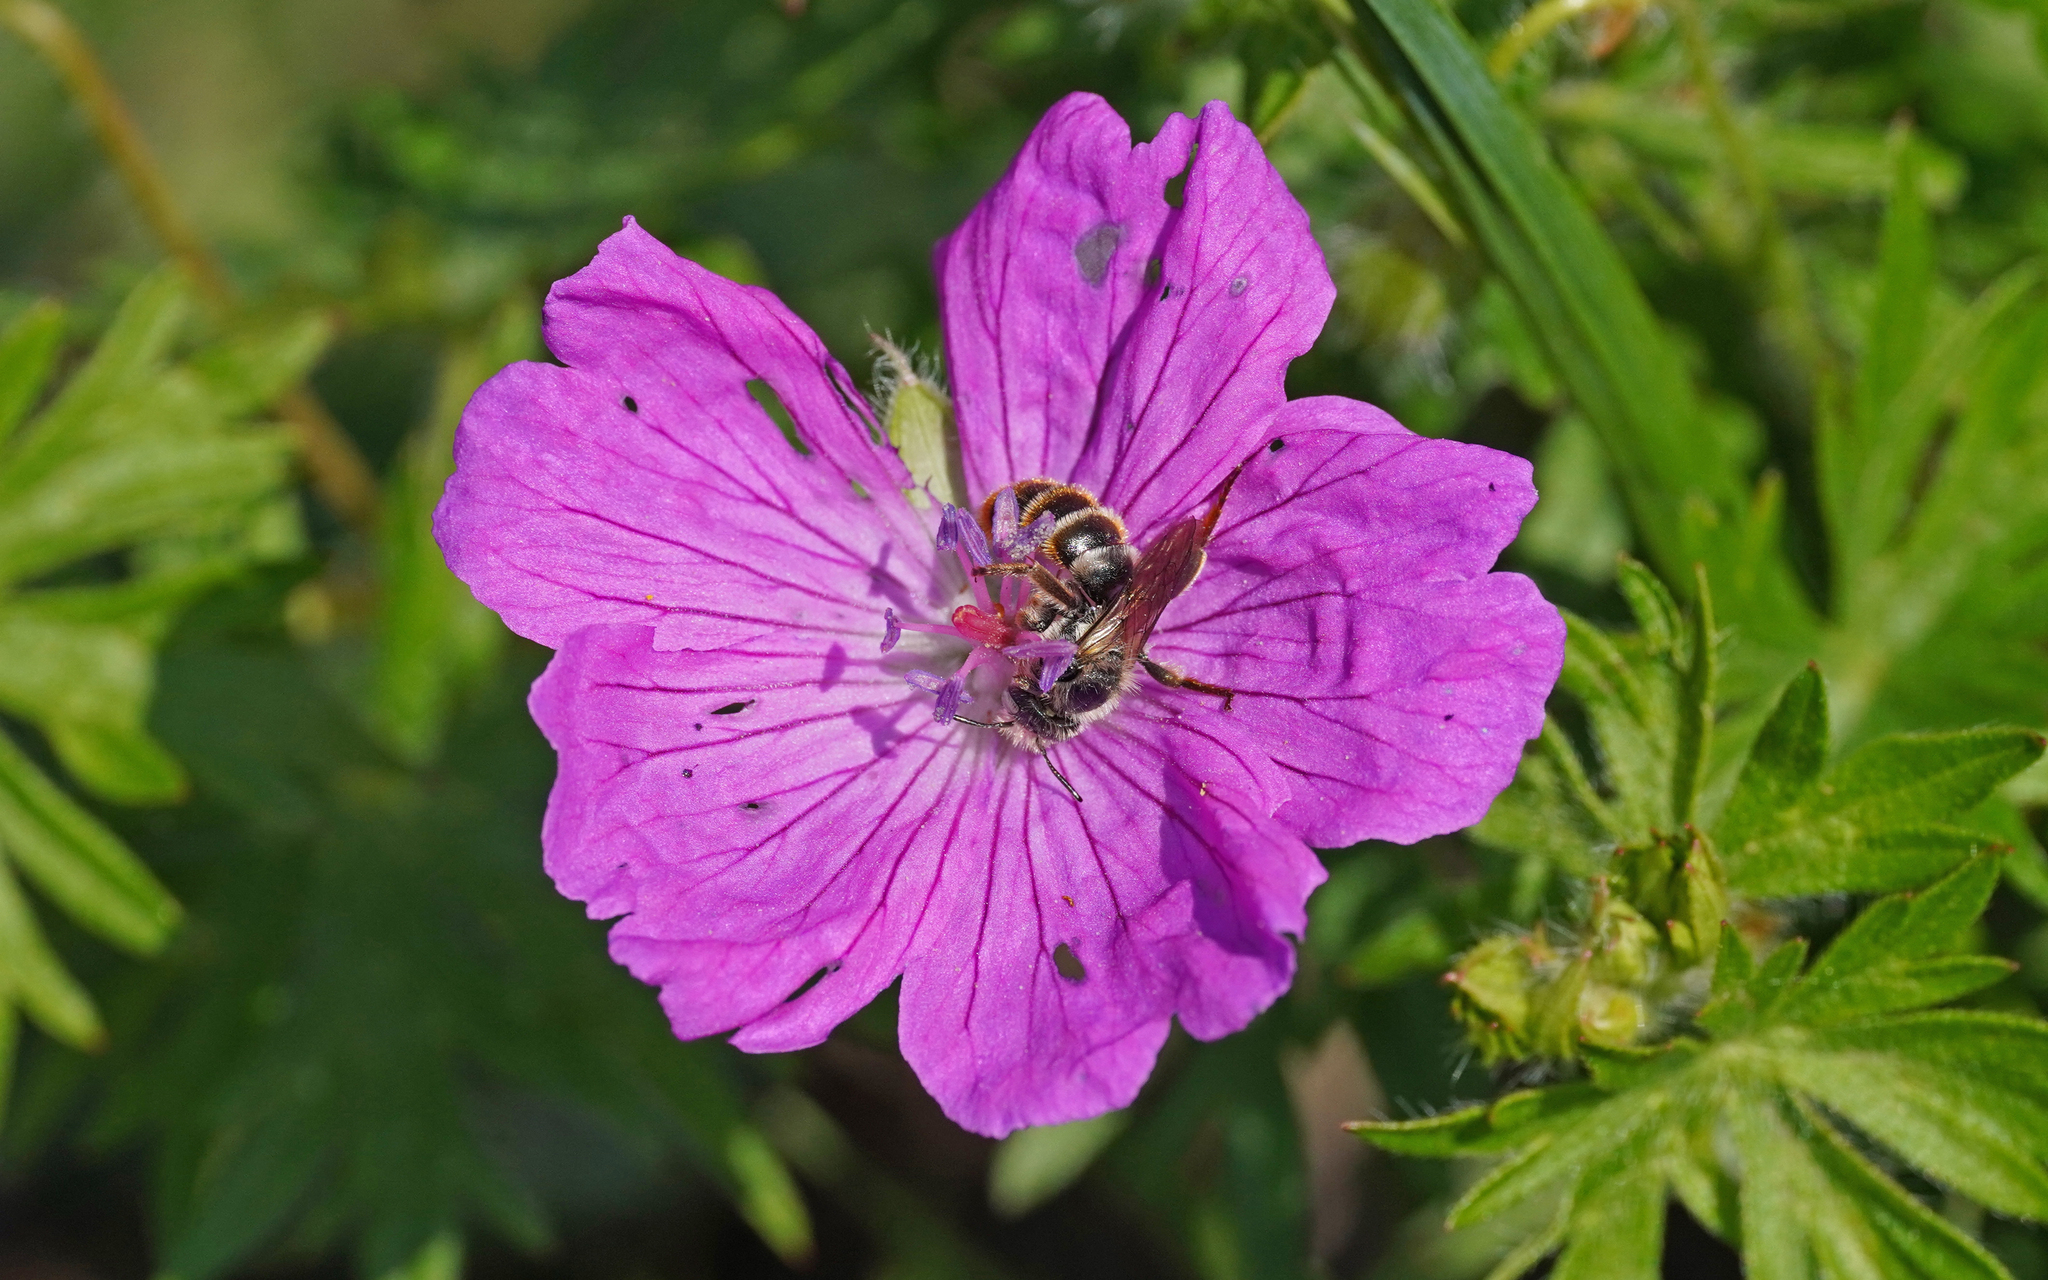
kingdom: Animalia
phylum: Arthropoda
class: Insecta
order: Hymenoptera
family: Megachilidae
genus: Osmia
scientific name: Osmia rufohirta
